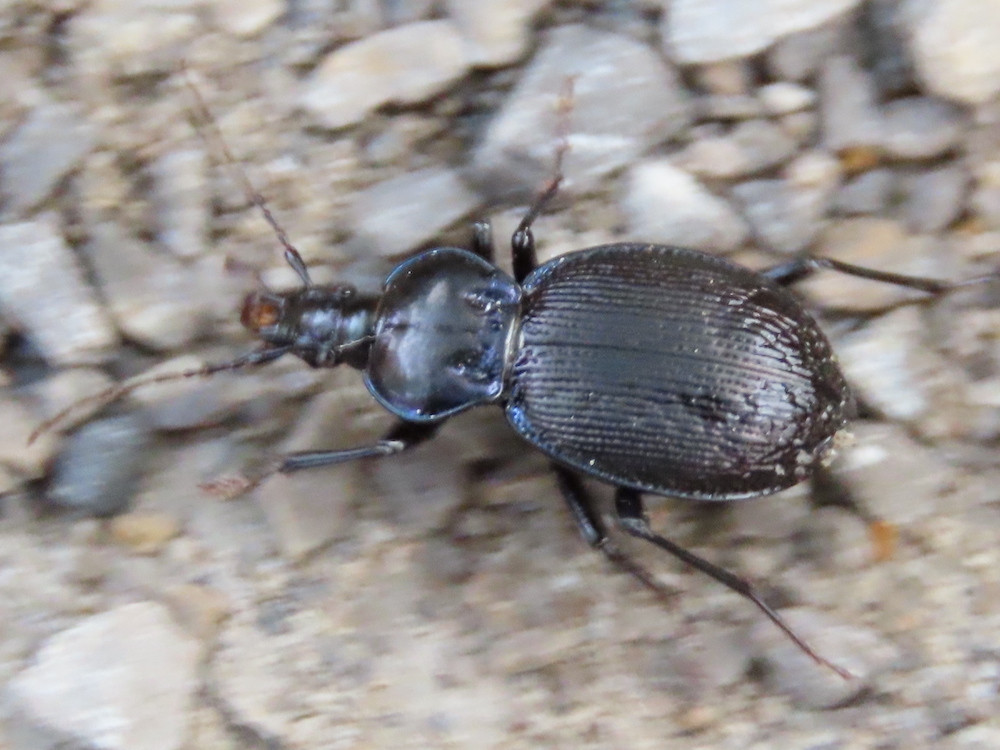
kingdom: Animalia
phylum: Arthropoda
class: Insecta
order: Coleoptera
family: Carabidae
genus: Sphaeroderus
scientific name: Sphaeroderus stenostomus
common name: Small snail-eating ground beetle
